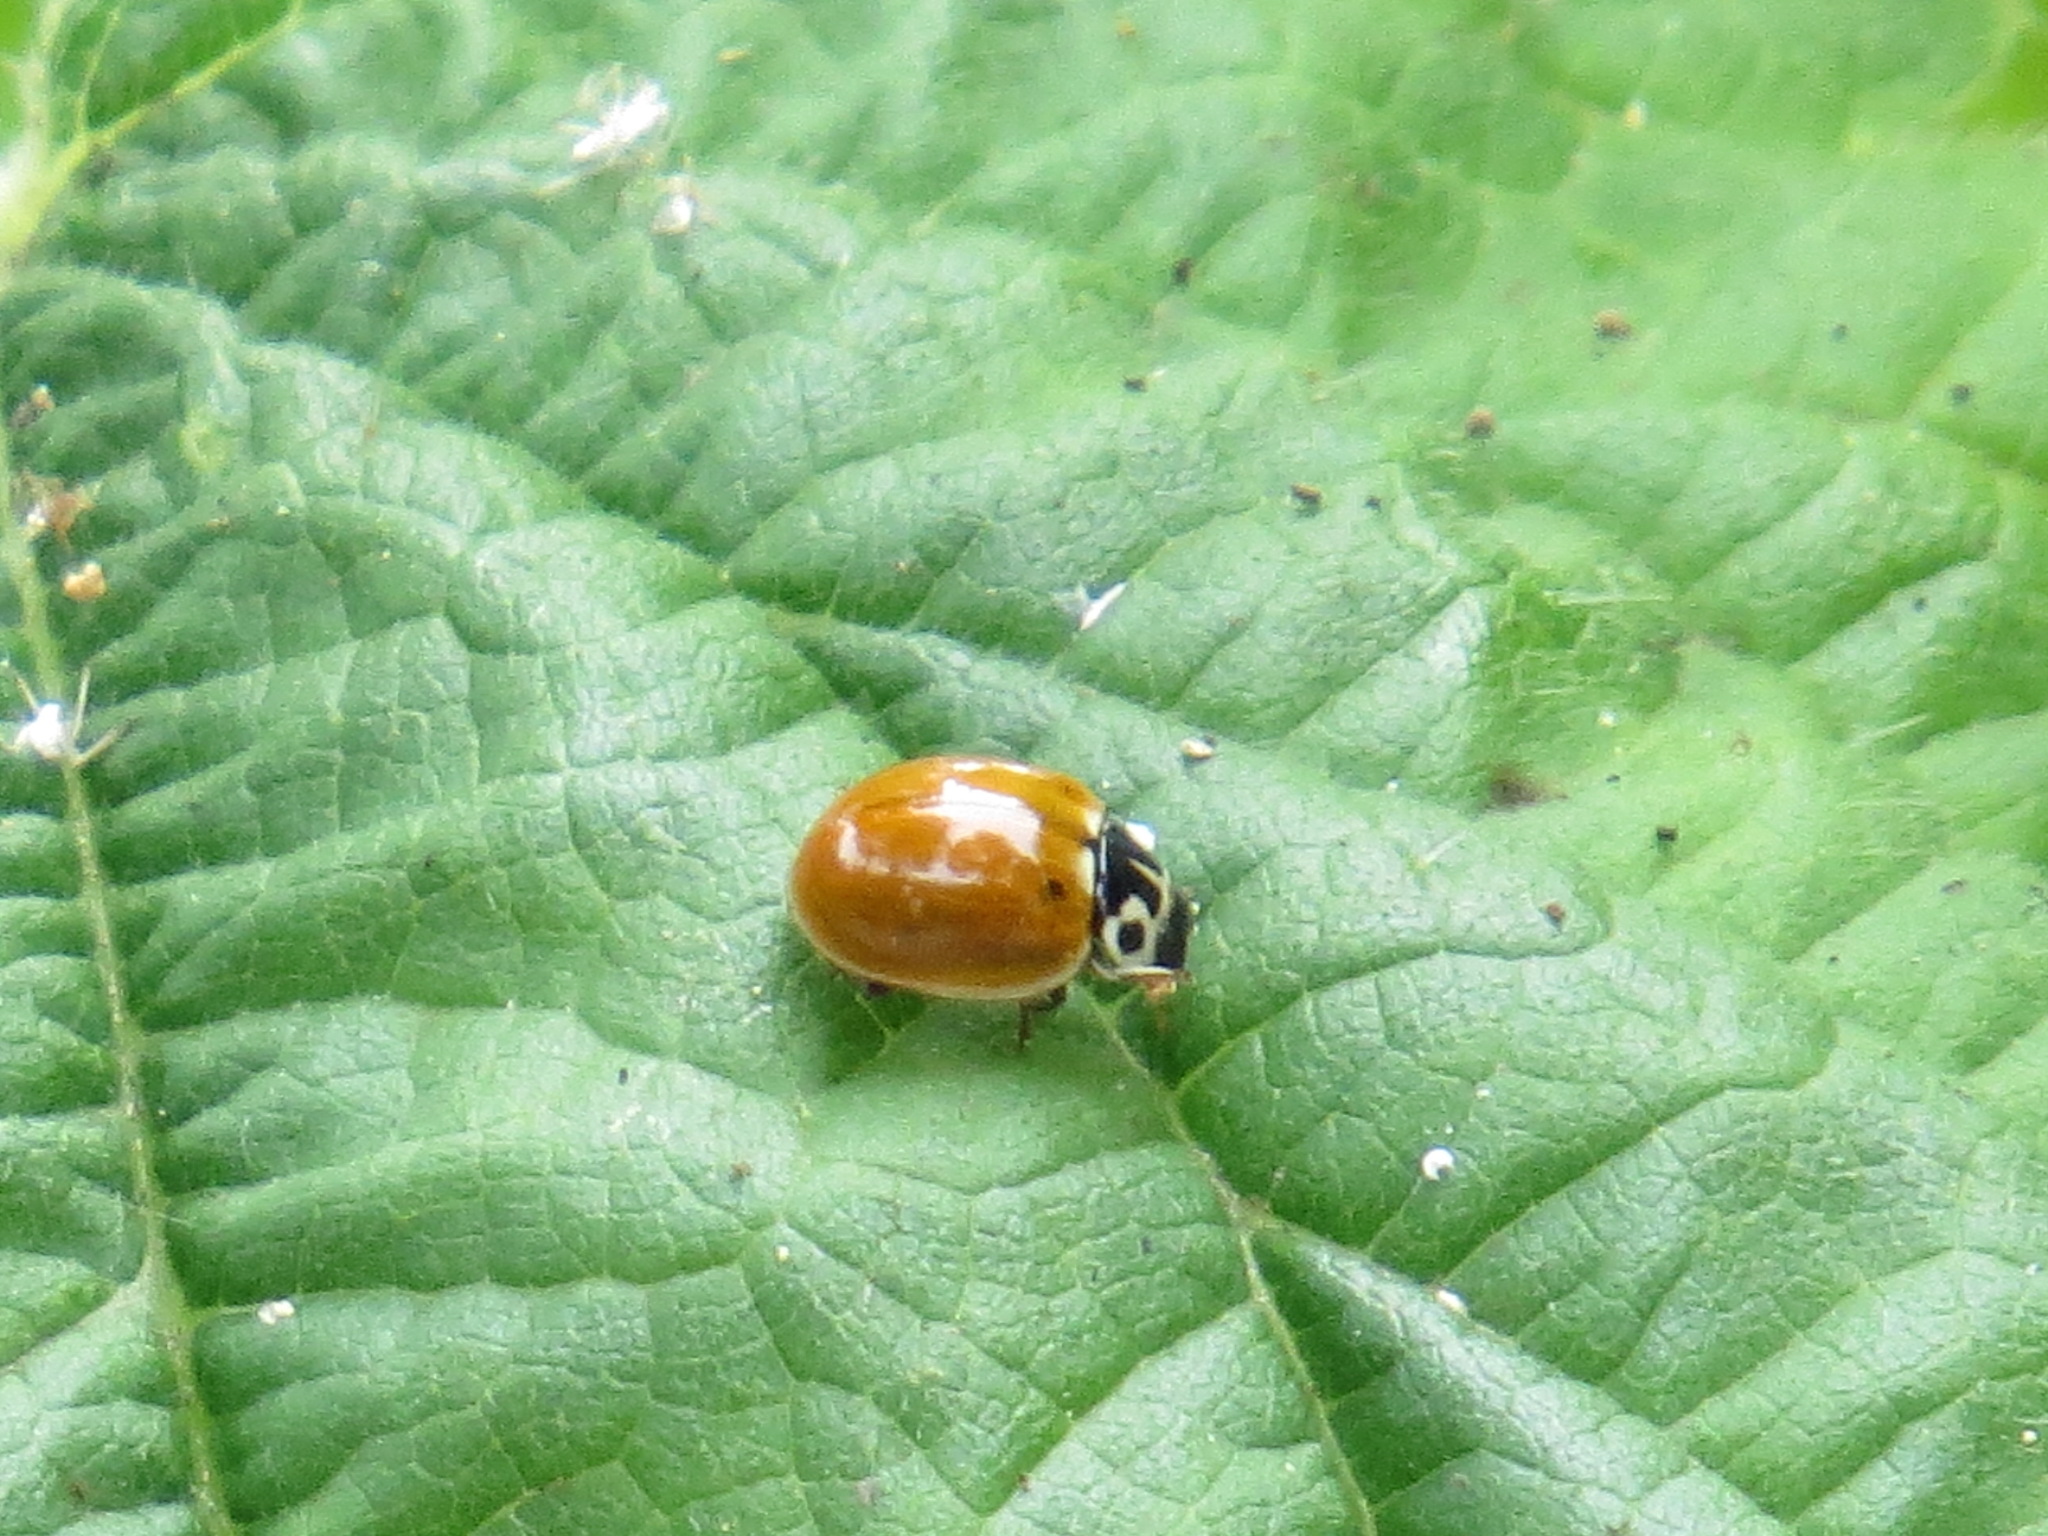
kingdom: Animalia
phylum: Arthropoda
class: Insecta
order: Coleoptera
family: Coccinellidae
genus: Cycloneda
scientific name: Cycloneda polita
